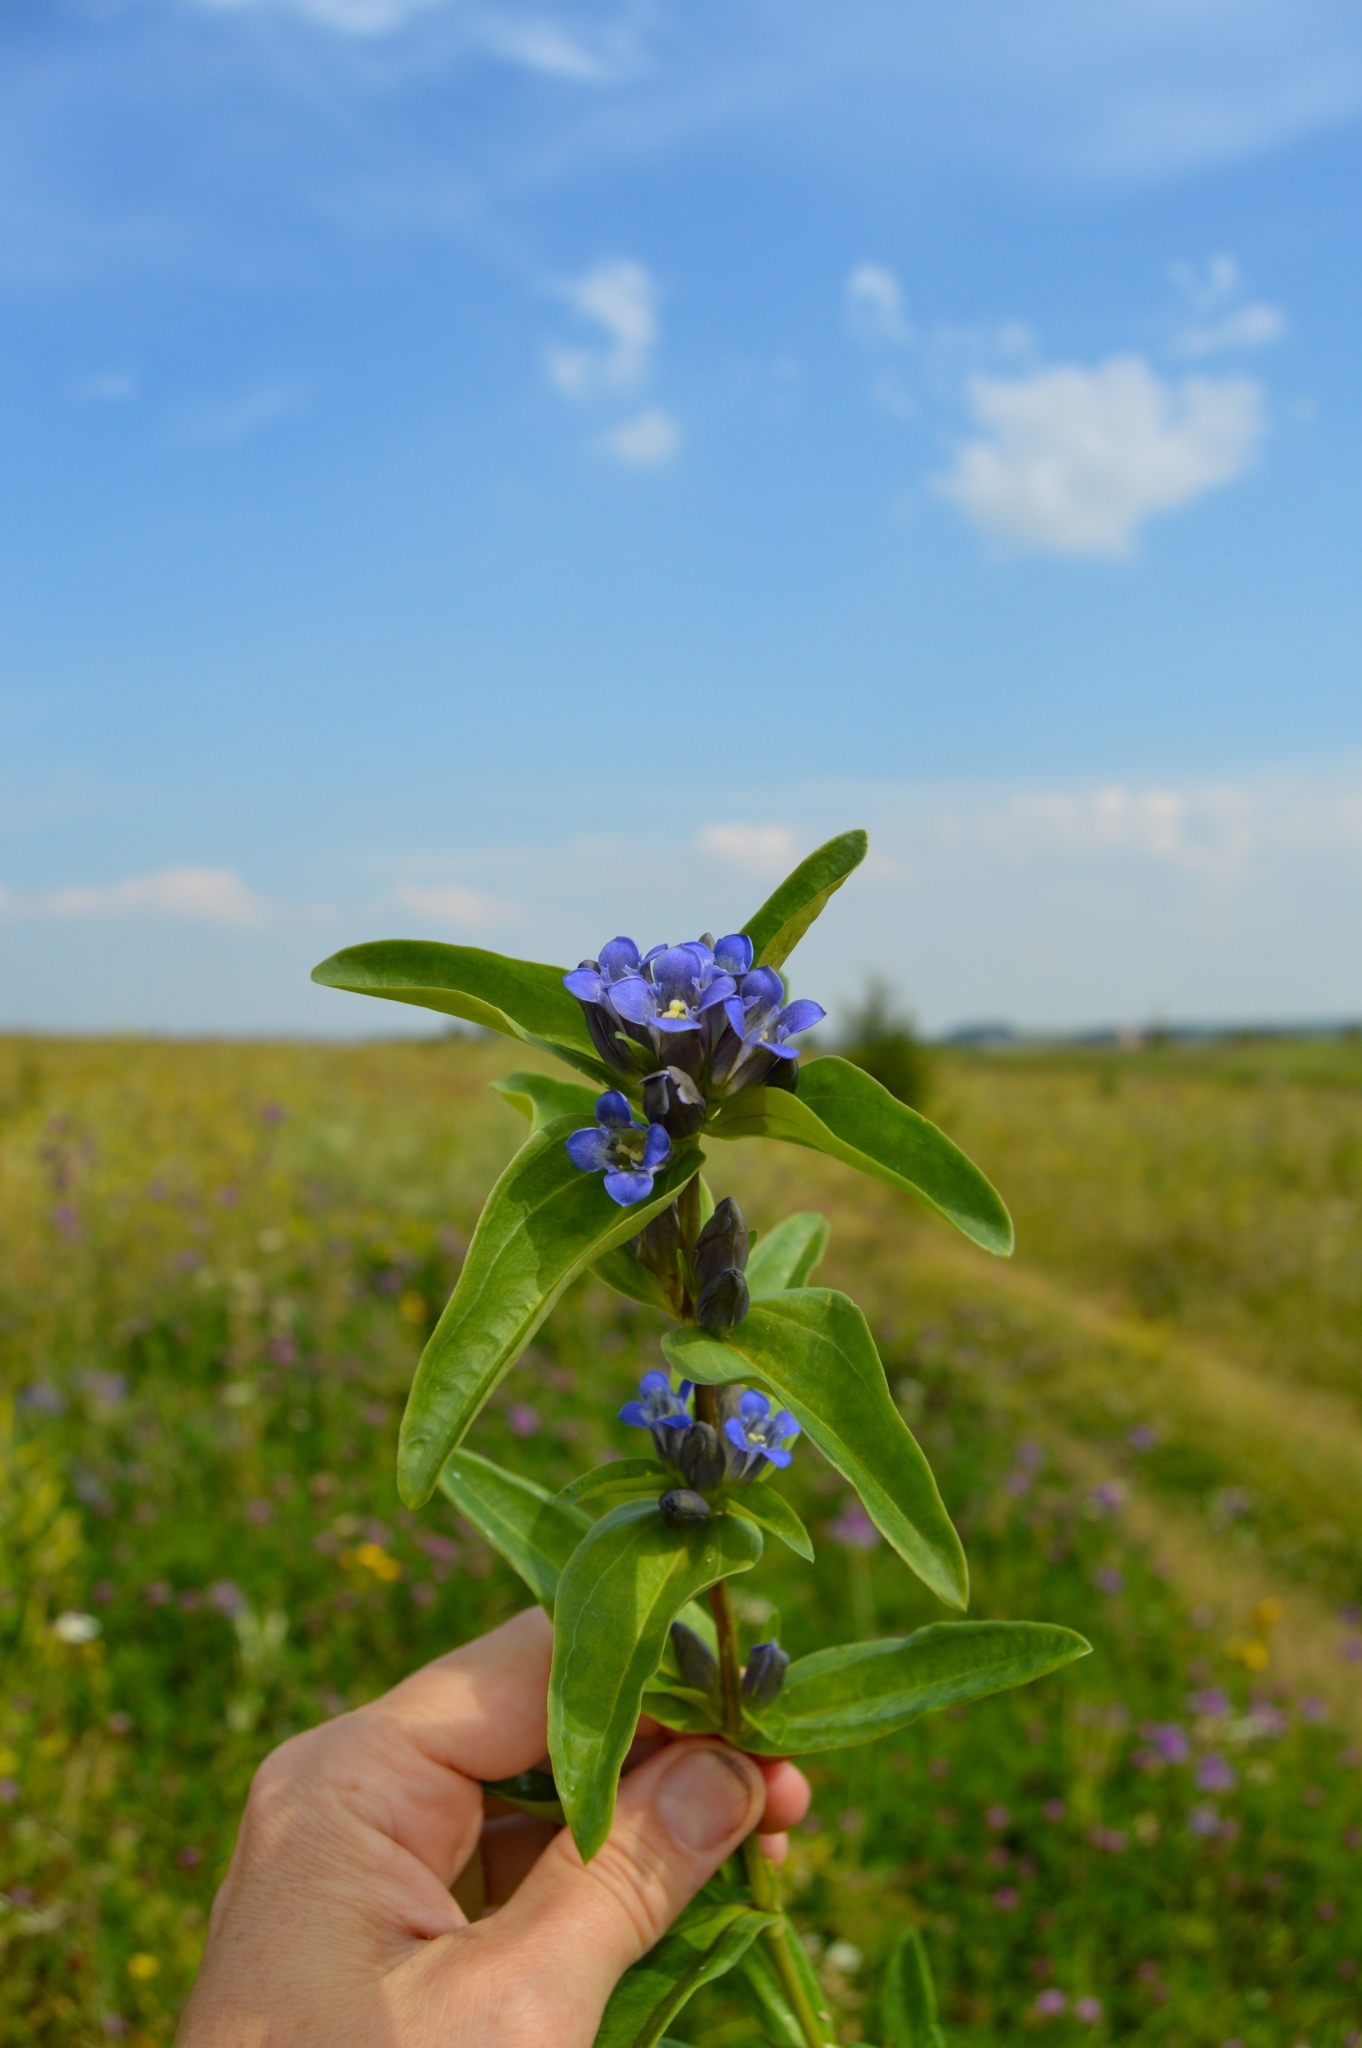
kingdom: Plantae
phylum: Tracheophyta
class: Magnoliopsida
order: Gentianales
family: Gentianaceae
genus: Gentiana
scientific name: Gentiana cruciata
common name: Cross gentian
